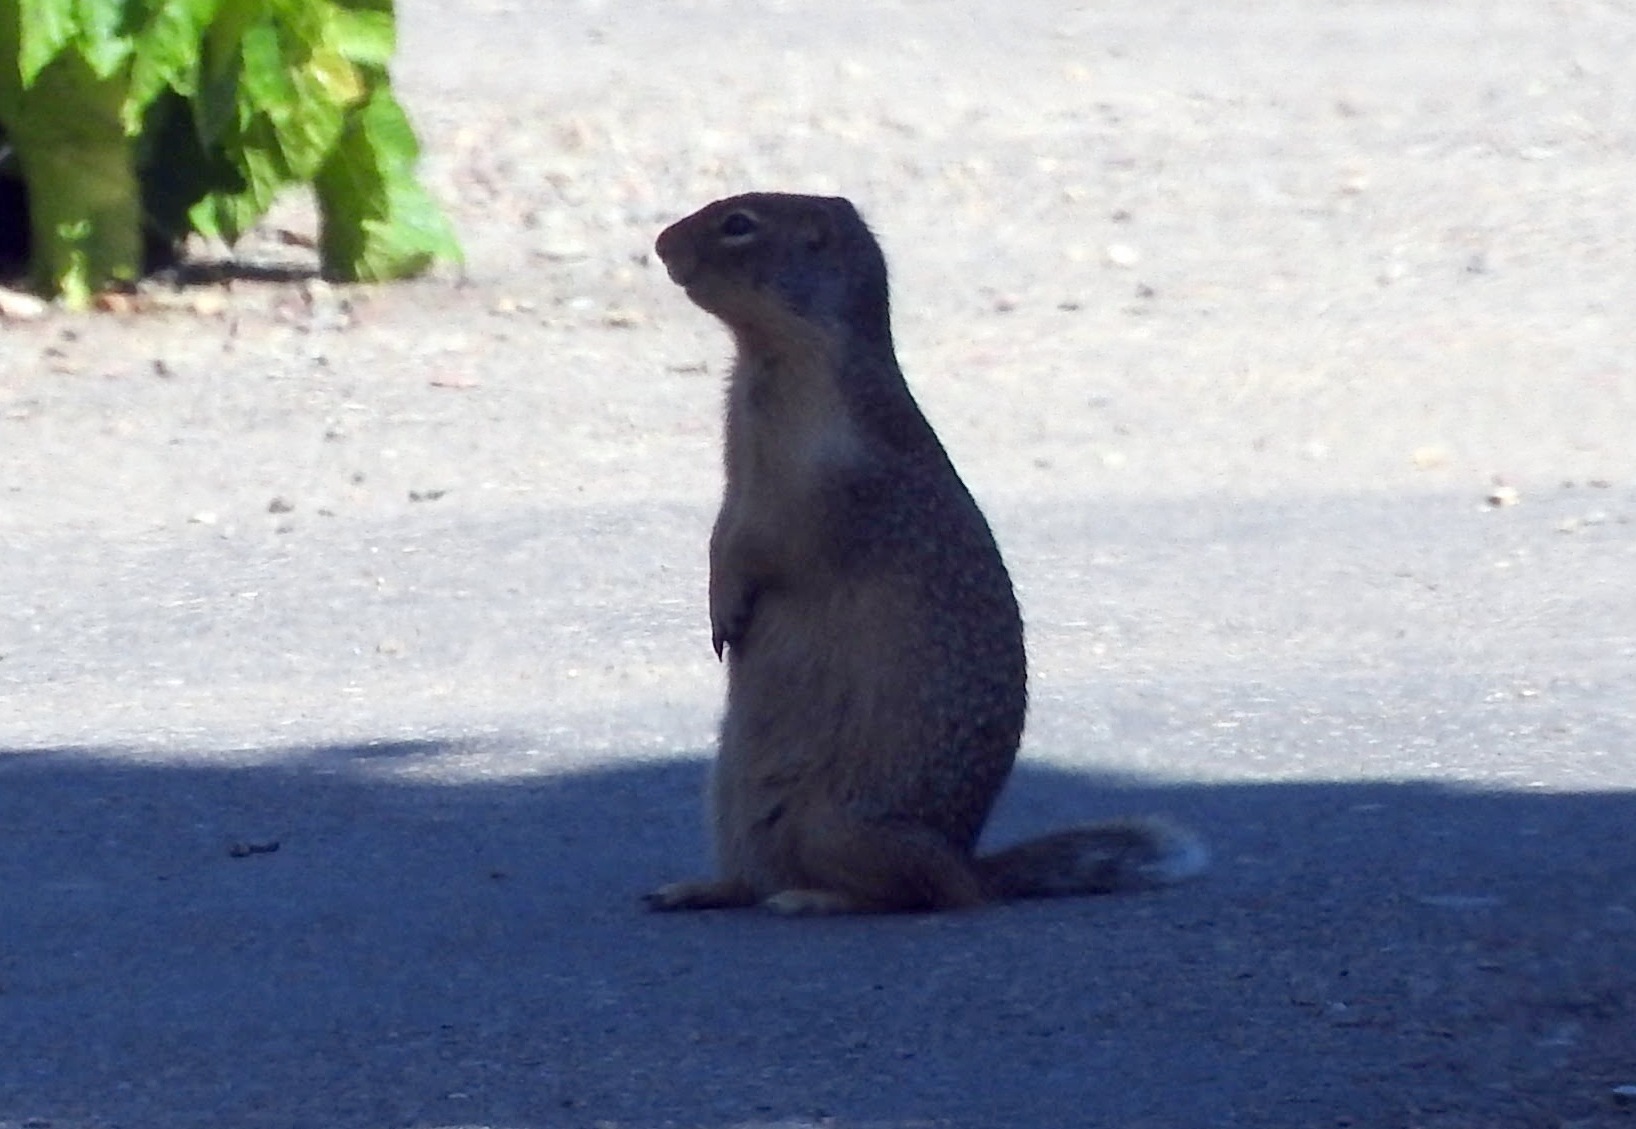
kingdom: Animalia
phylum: Chordata
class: Mammalia
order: Rodentia
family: Sciuridae
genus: Urocitellus
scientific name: Urocitellus columbianus
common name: Columbian ground squirrel
